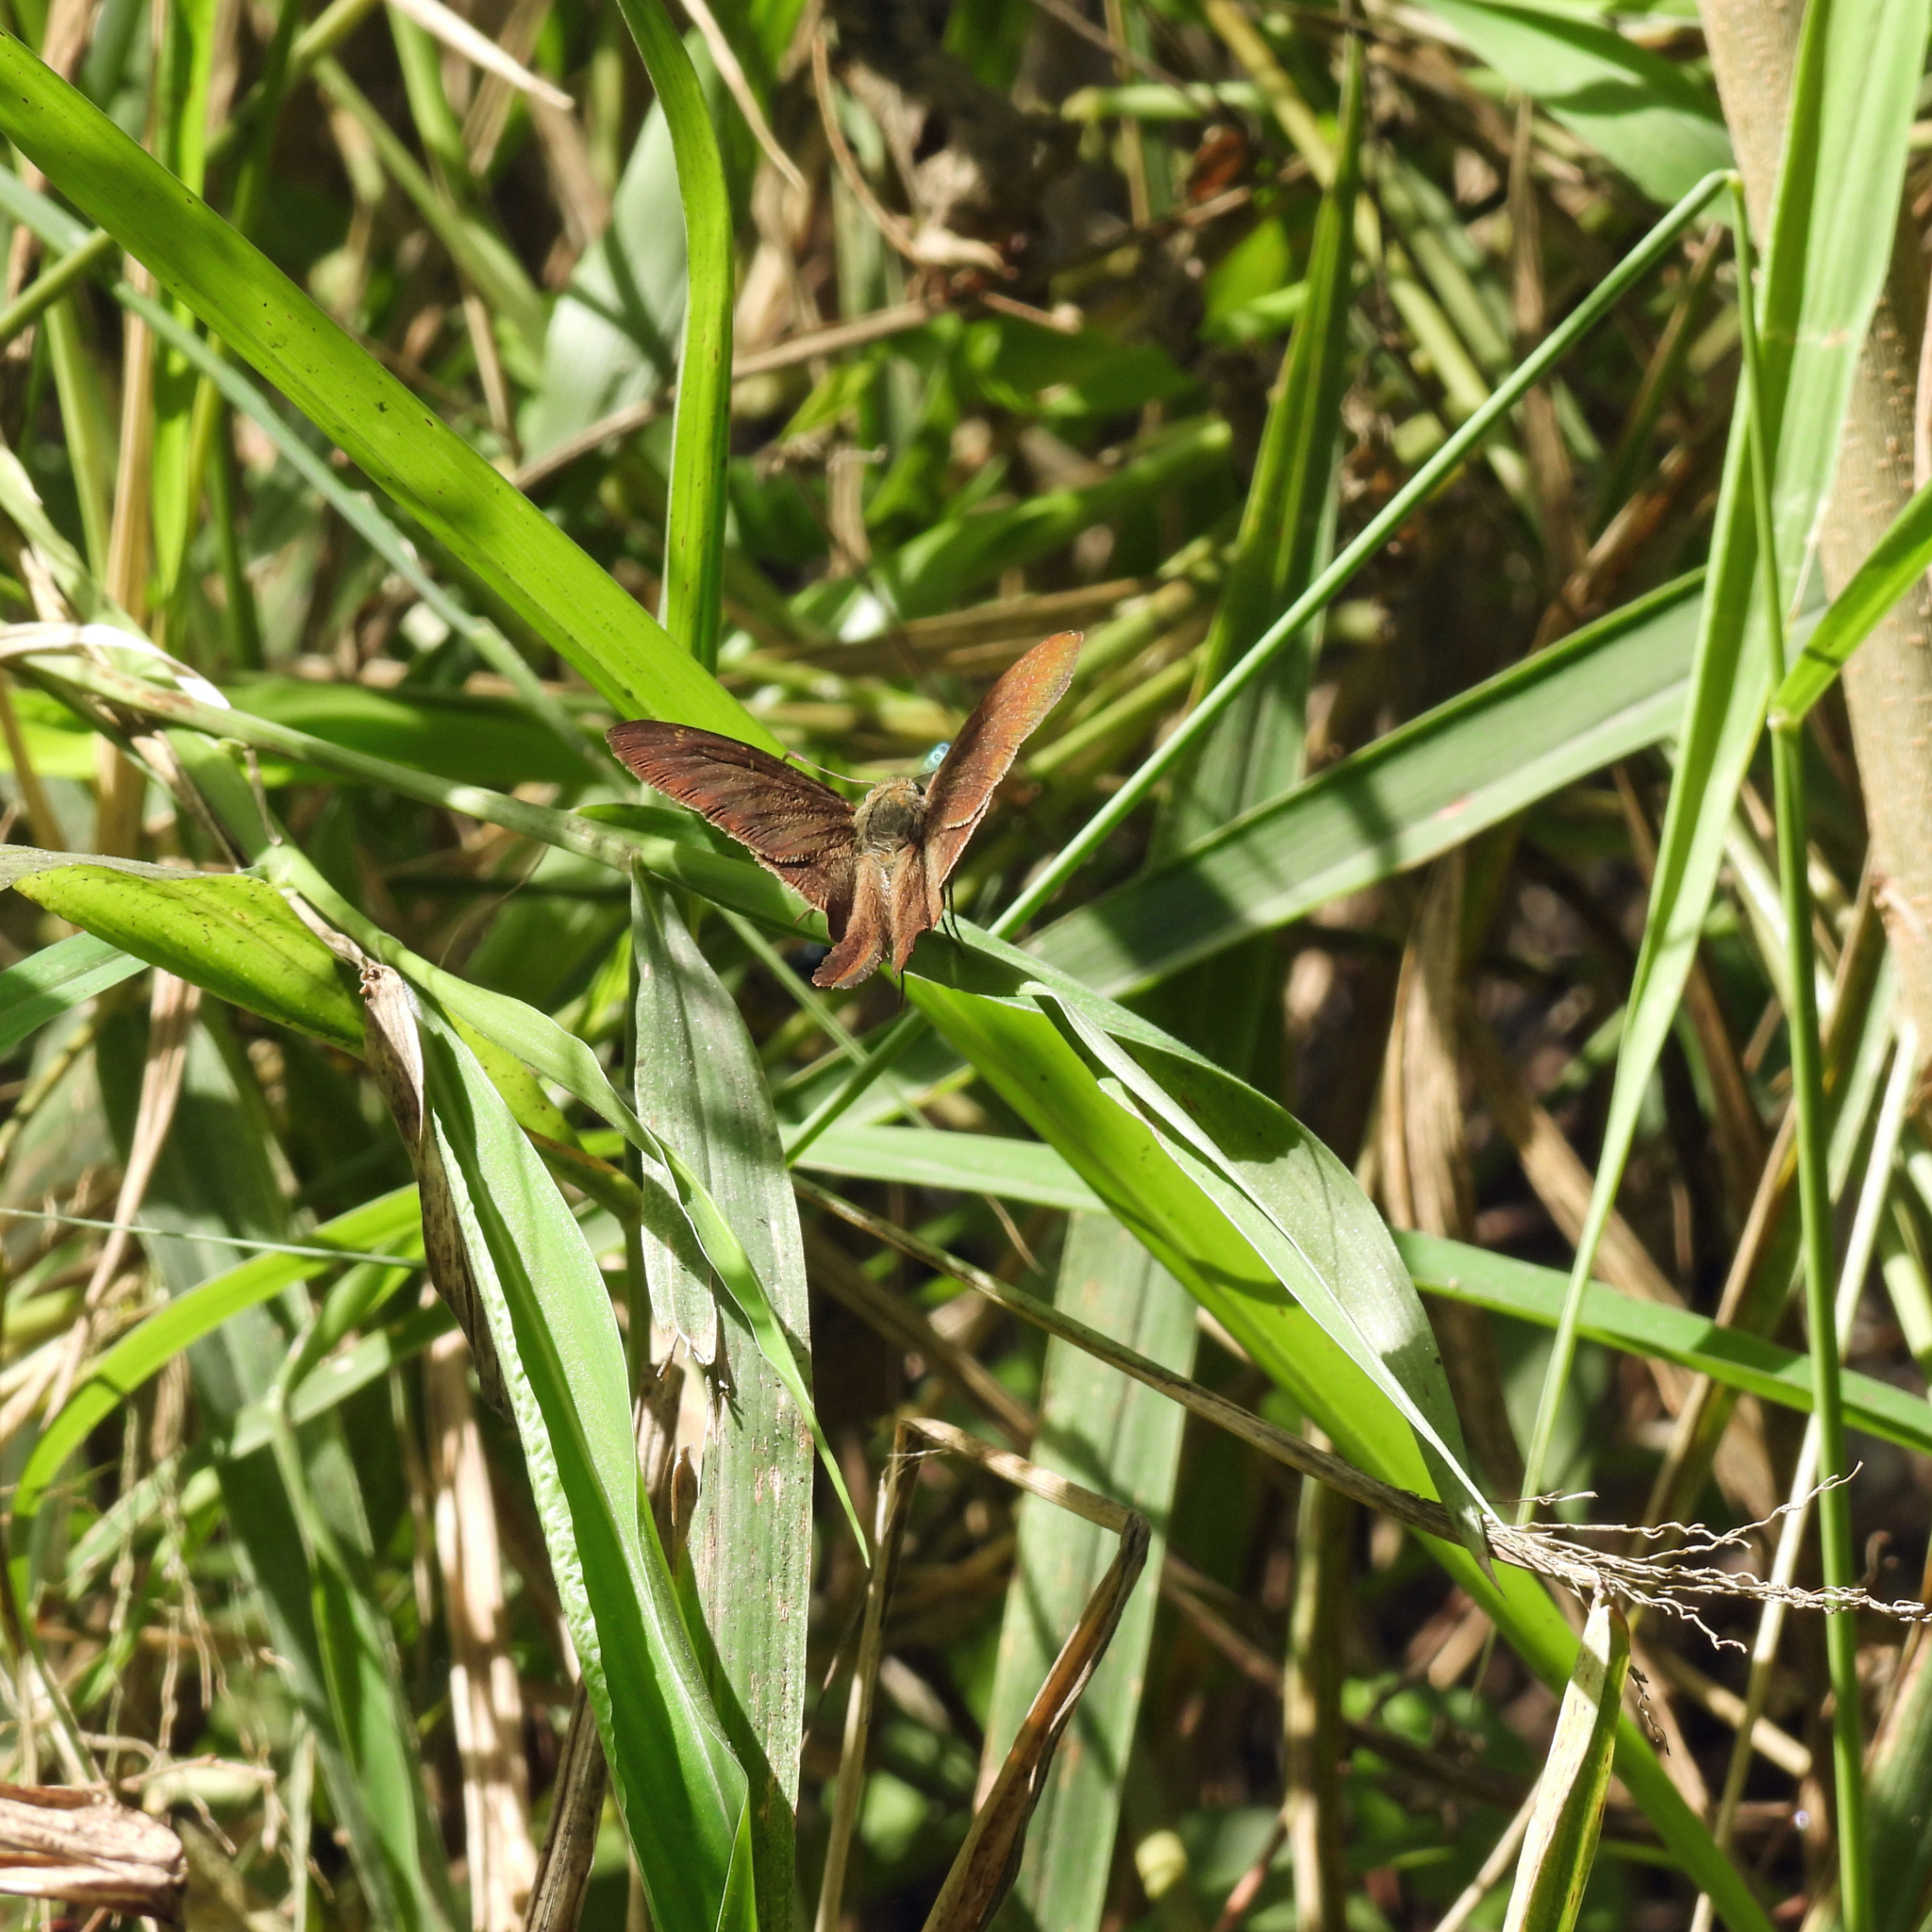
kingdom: Animalia
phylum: Arthropoda
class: Insecta
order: Lepidoptera
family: Hesperiidae
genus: Urbanus
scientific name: Urbanus procne
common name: Brown longtail
